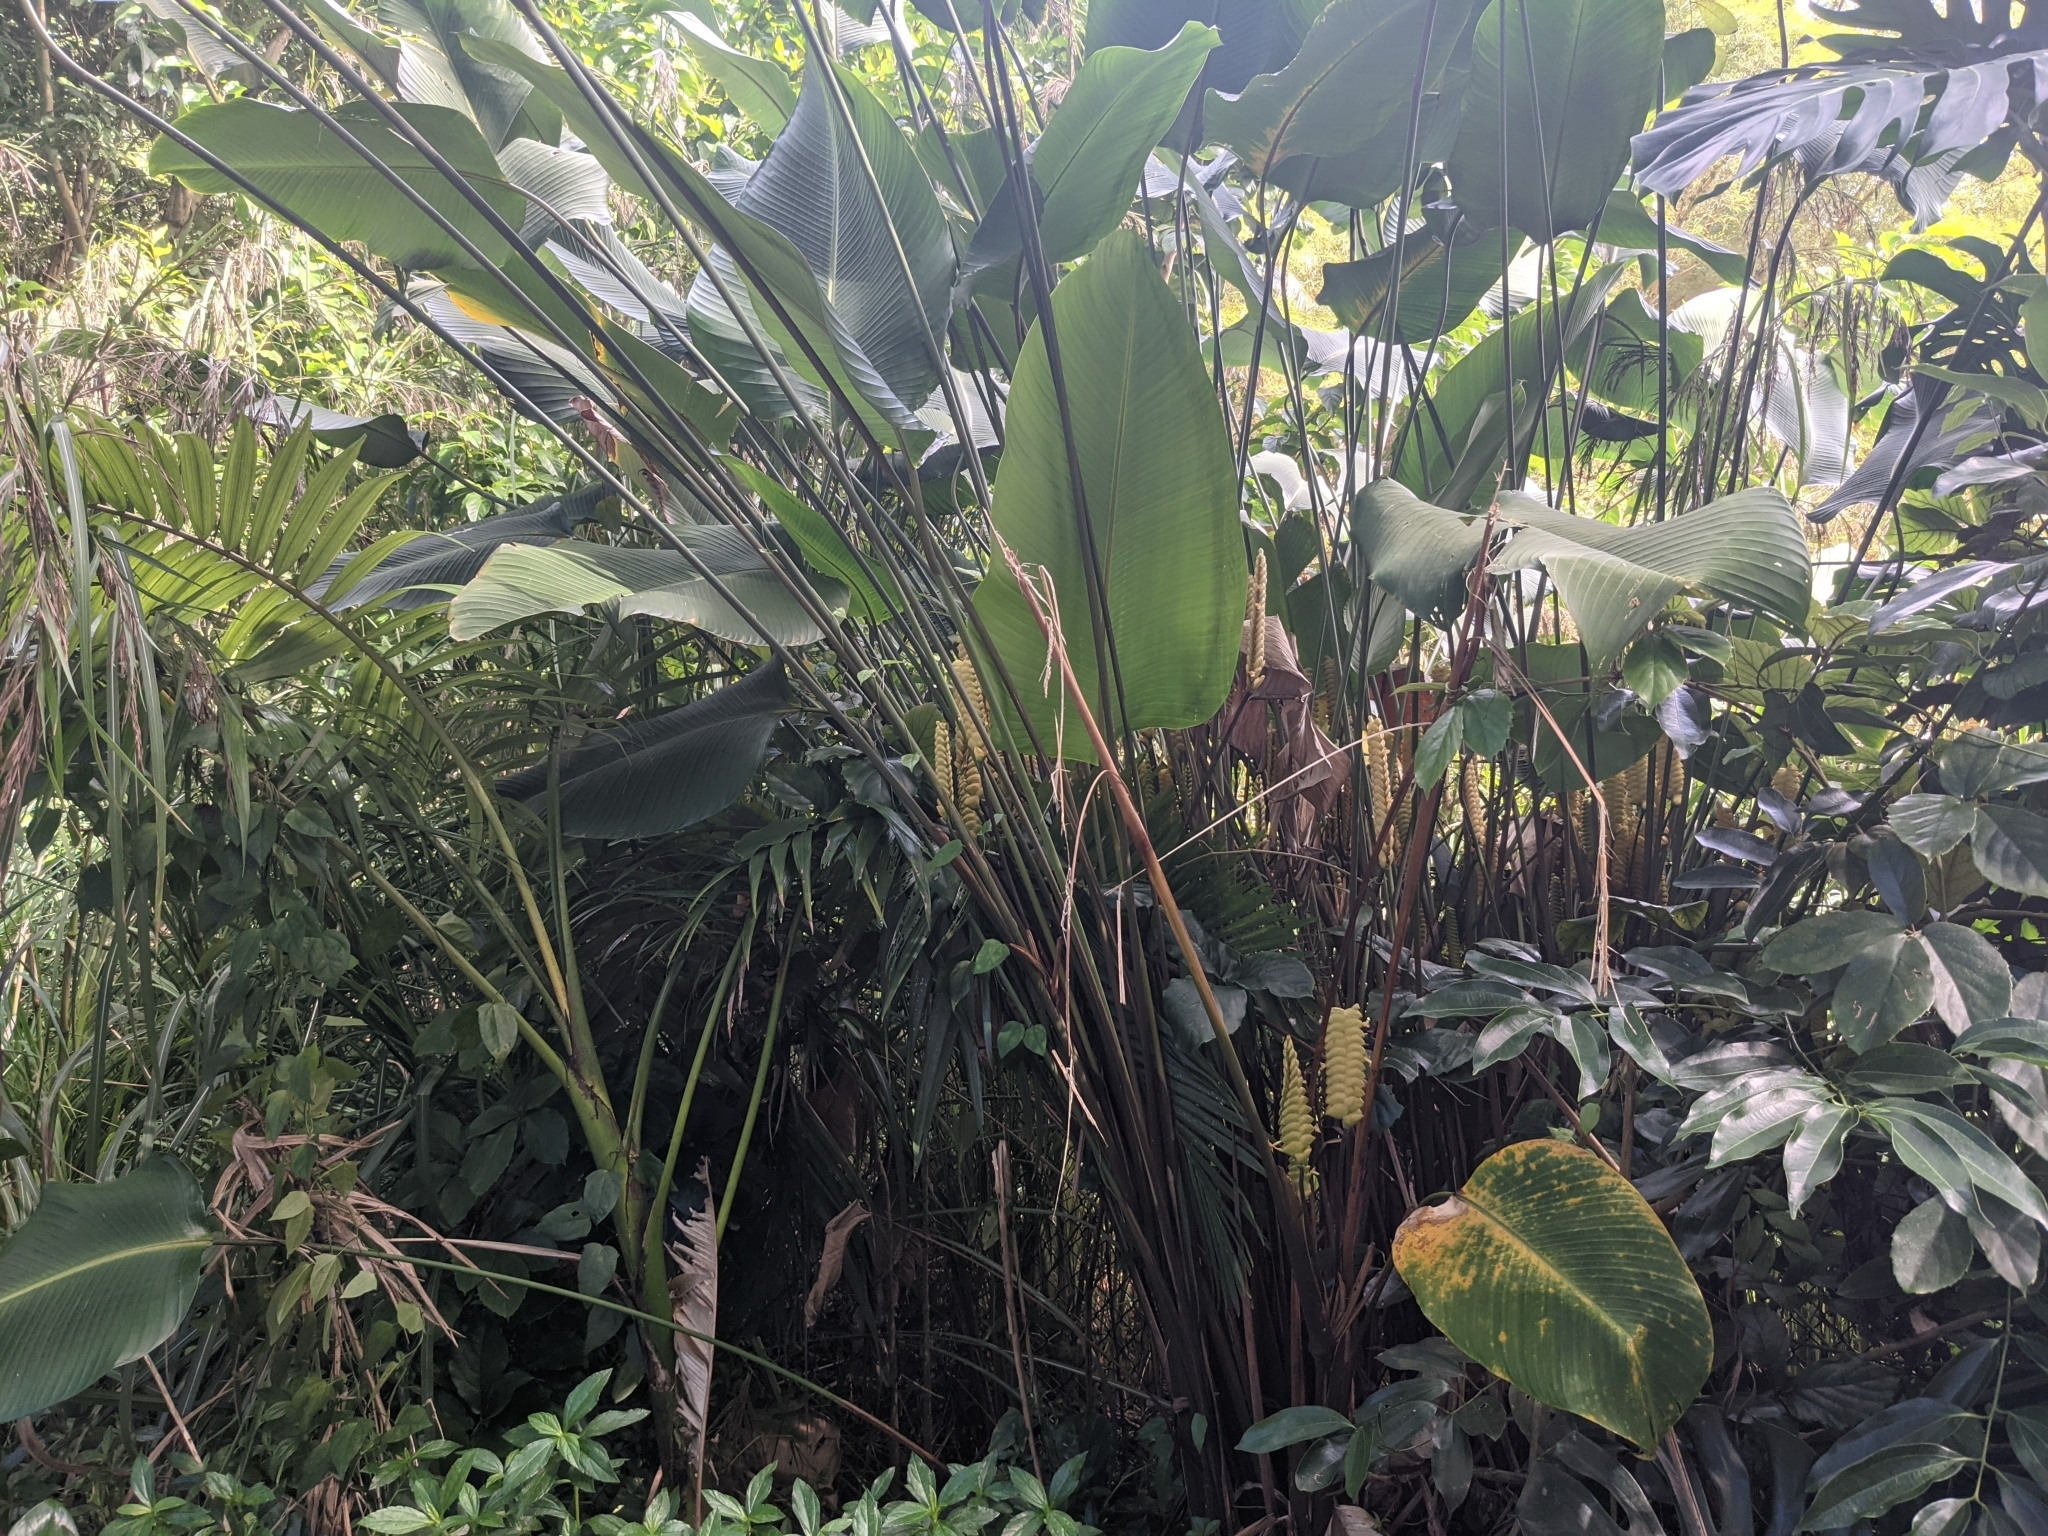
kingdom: Plantae
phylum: Tracheophyta
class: Liliopsida
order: Zingiberales
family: Marantaceae
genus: Calathea
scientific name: Calathea crotalifera
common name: Rattlesnake plant
